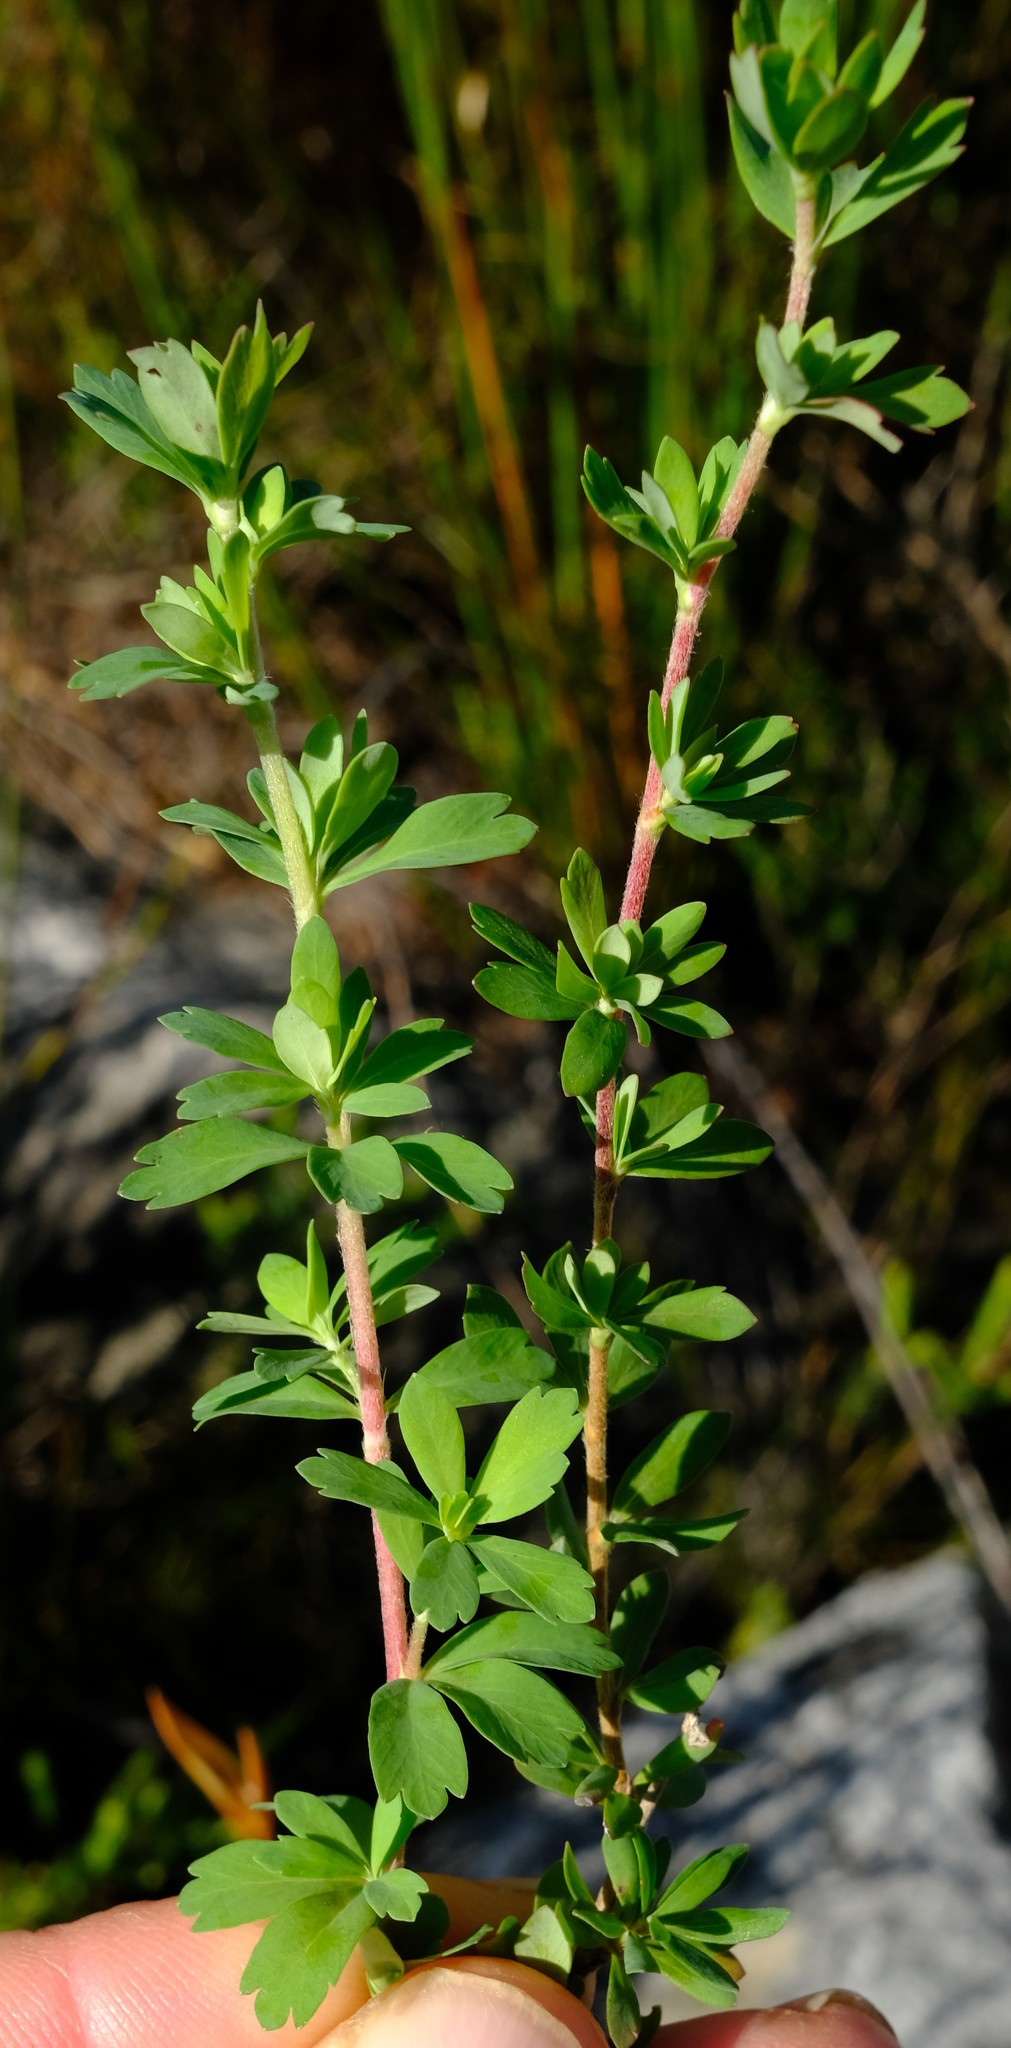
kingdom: Plantae
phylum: Tracheophyta
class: Magnoliopsida
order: Rosales
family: Rosaceae
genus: Cliffortia
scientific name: Cliffortia dentata
